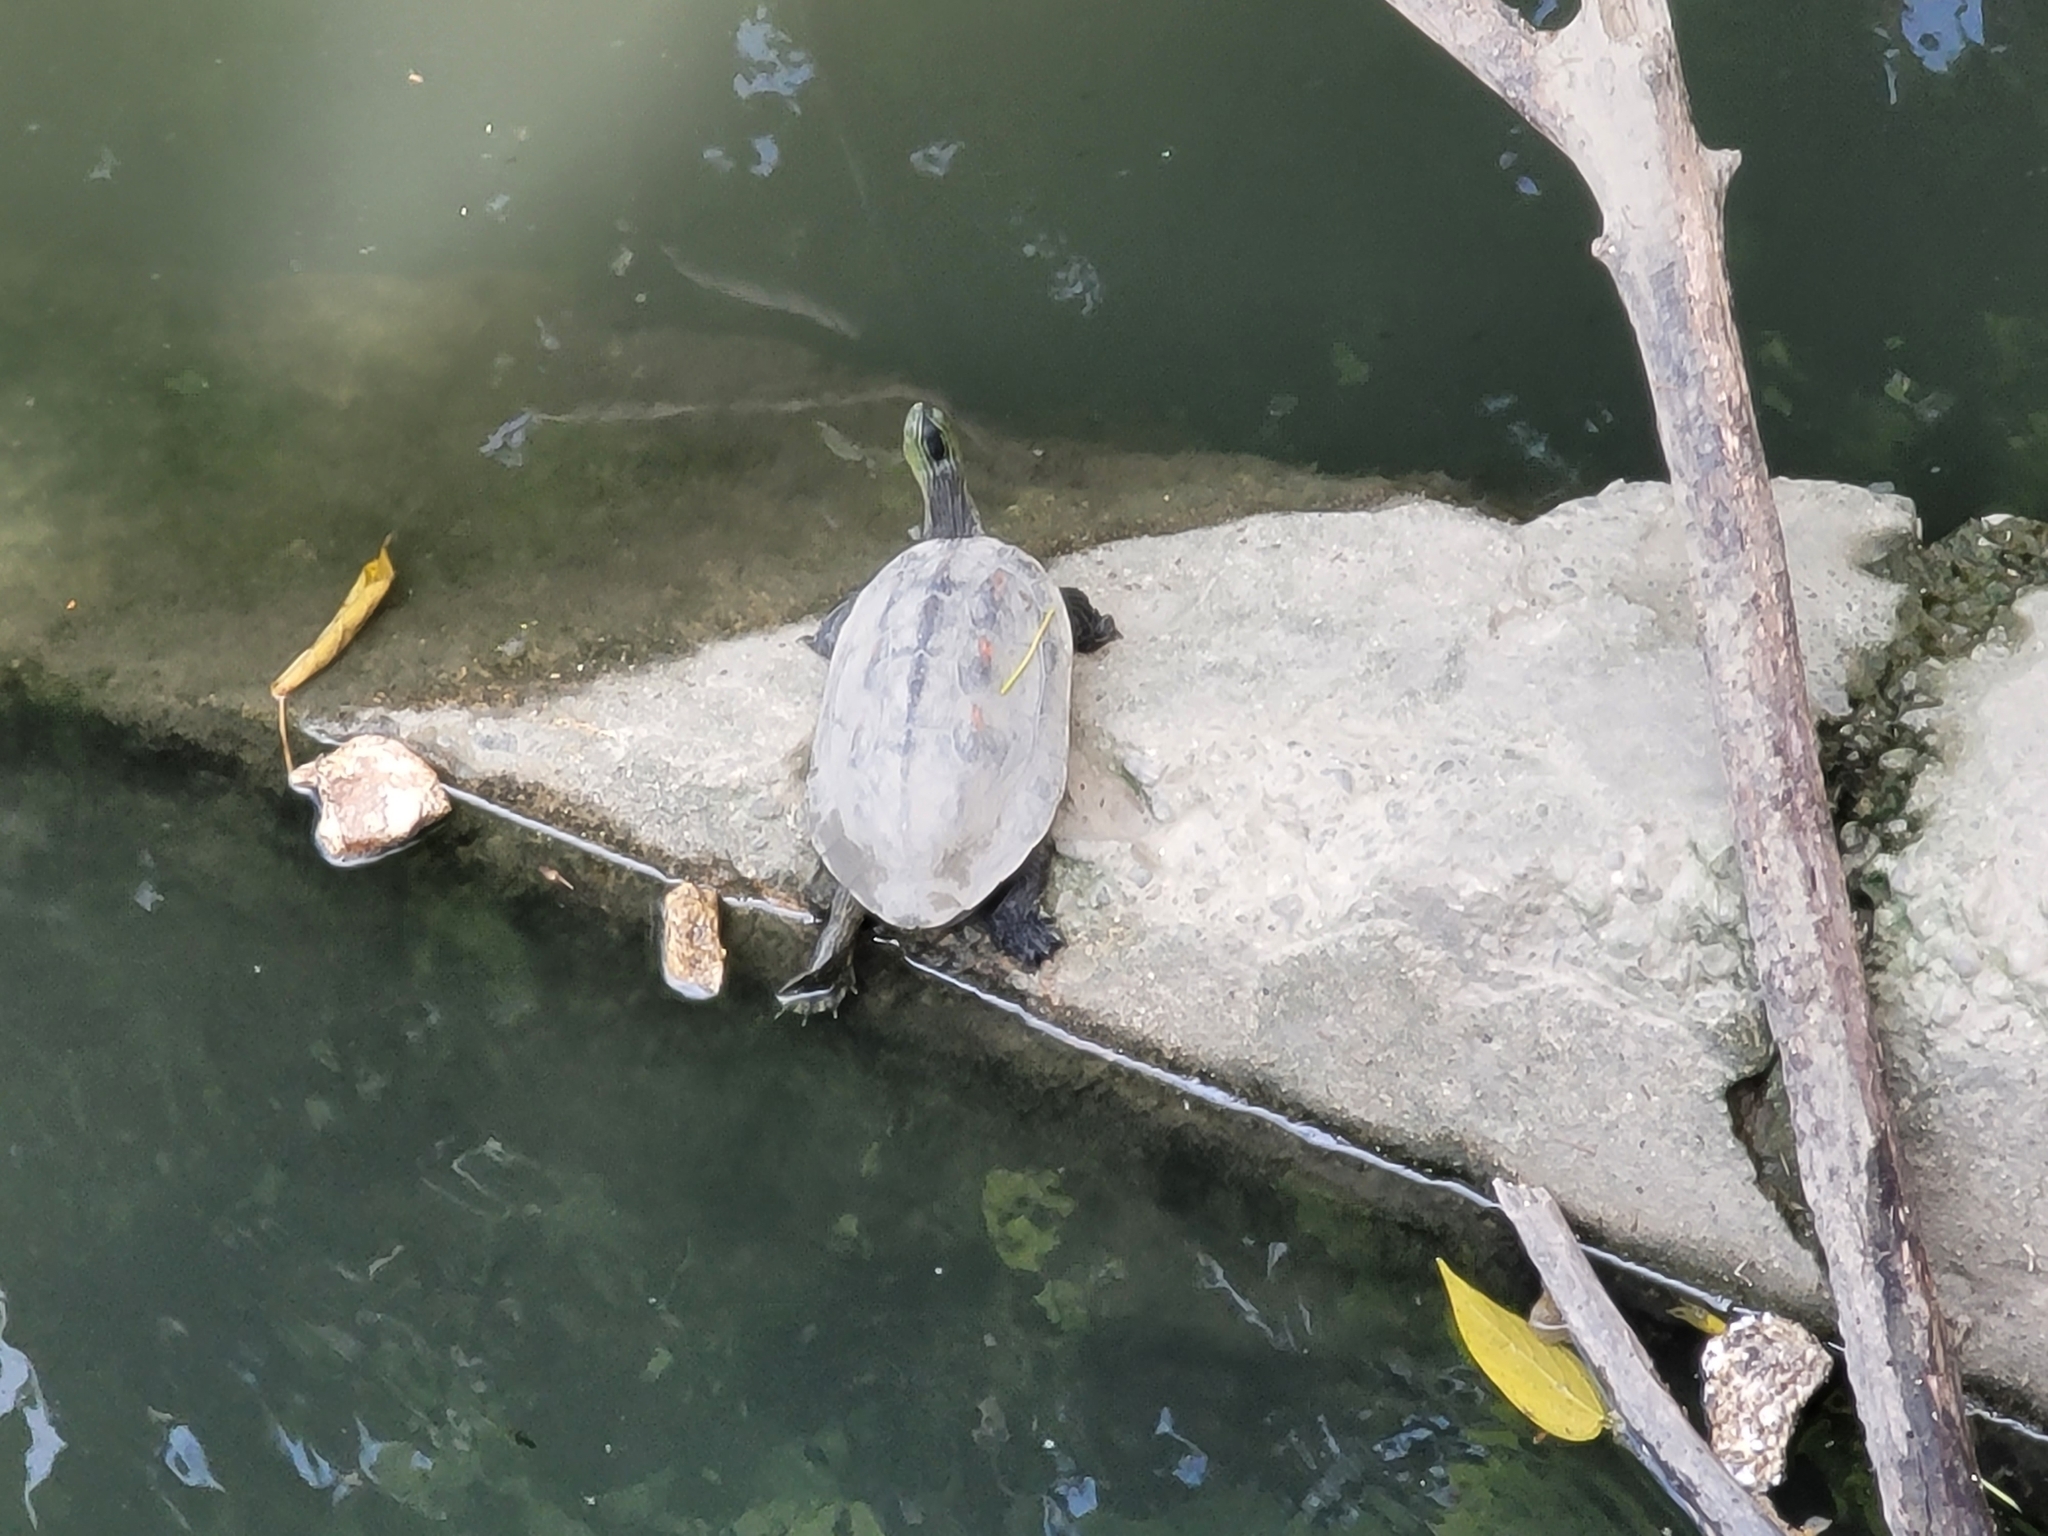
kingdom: Animalia
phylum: Chordata
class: Testudines
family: Geoemydidae
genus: Mauremys
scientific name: Mauremys sinensis
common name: Chinese stripe-necked turtle
